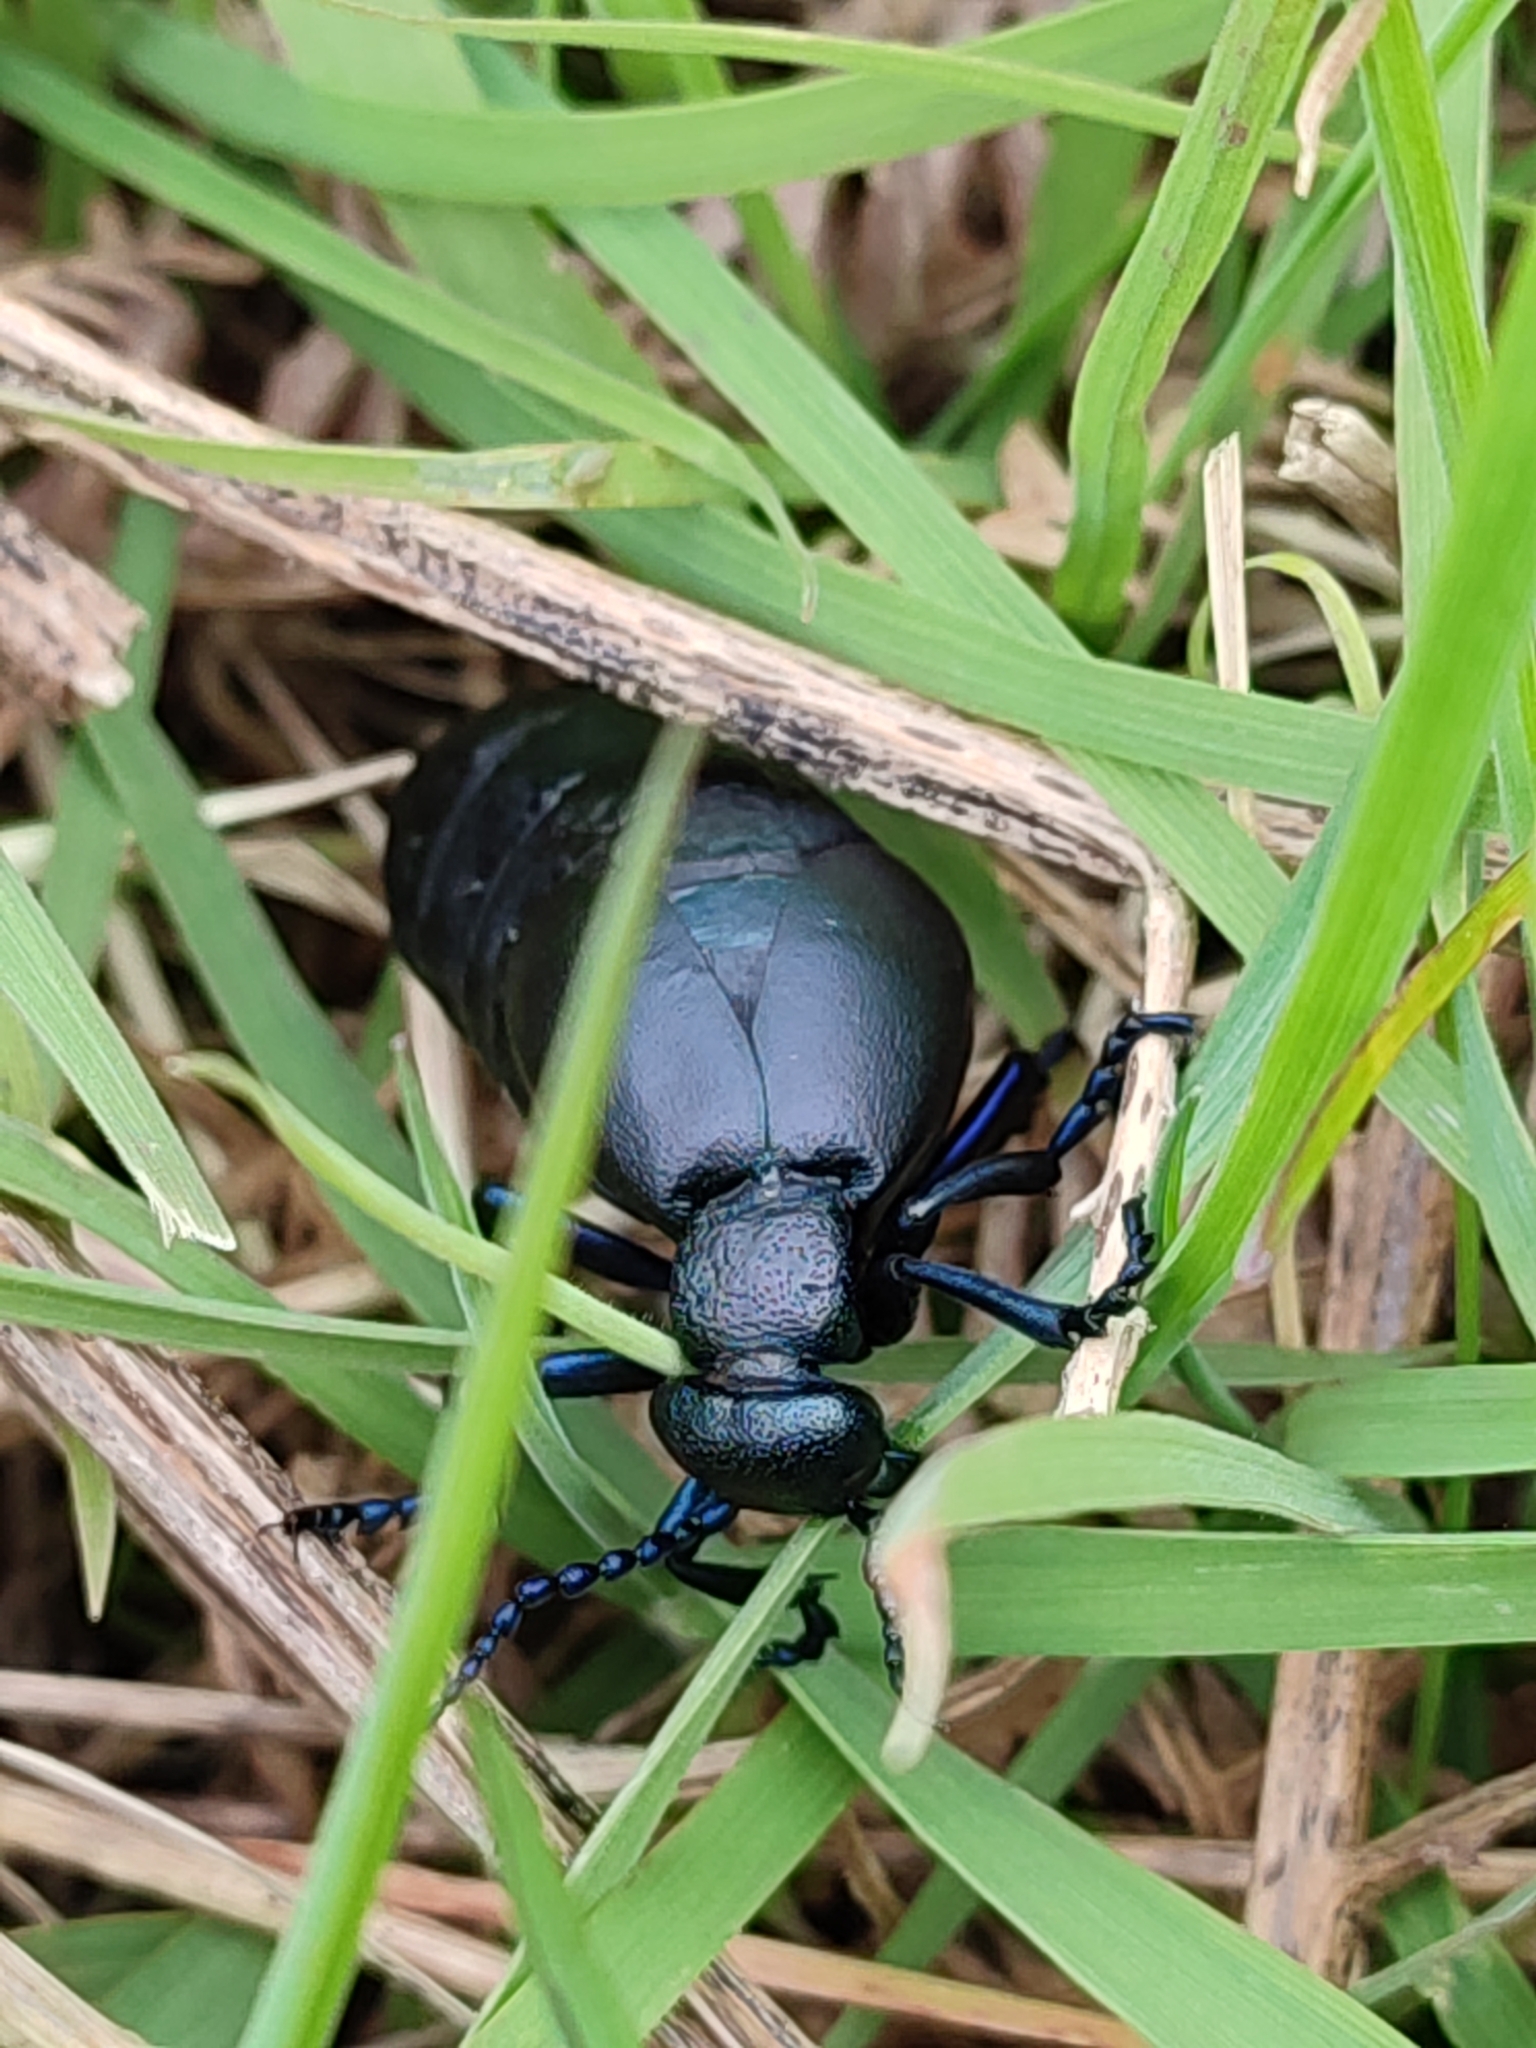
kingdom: Animalia
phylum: Arthropoda
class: Insecta
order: Coleoptera
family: Meloidae
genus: Meloe
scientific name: Meloe proscarabaeus
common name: Black oil-beetle
